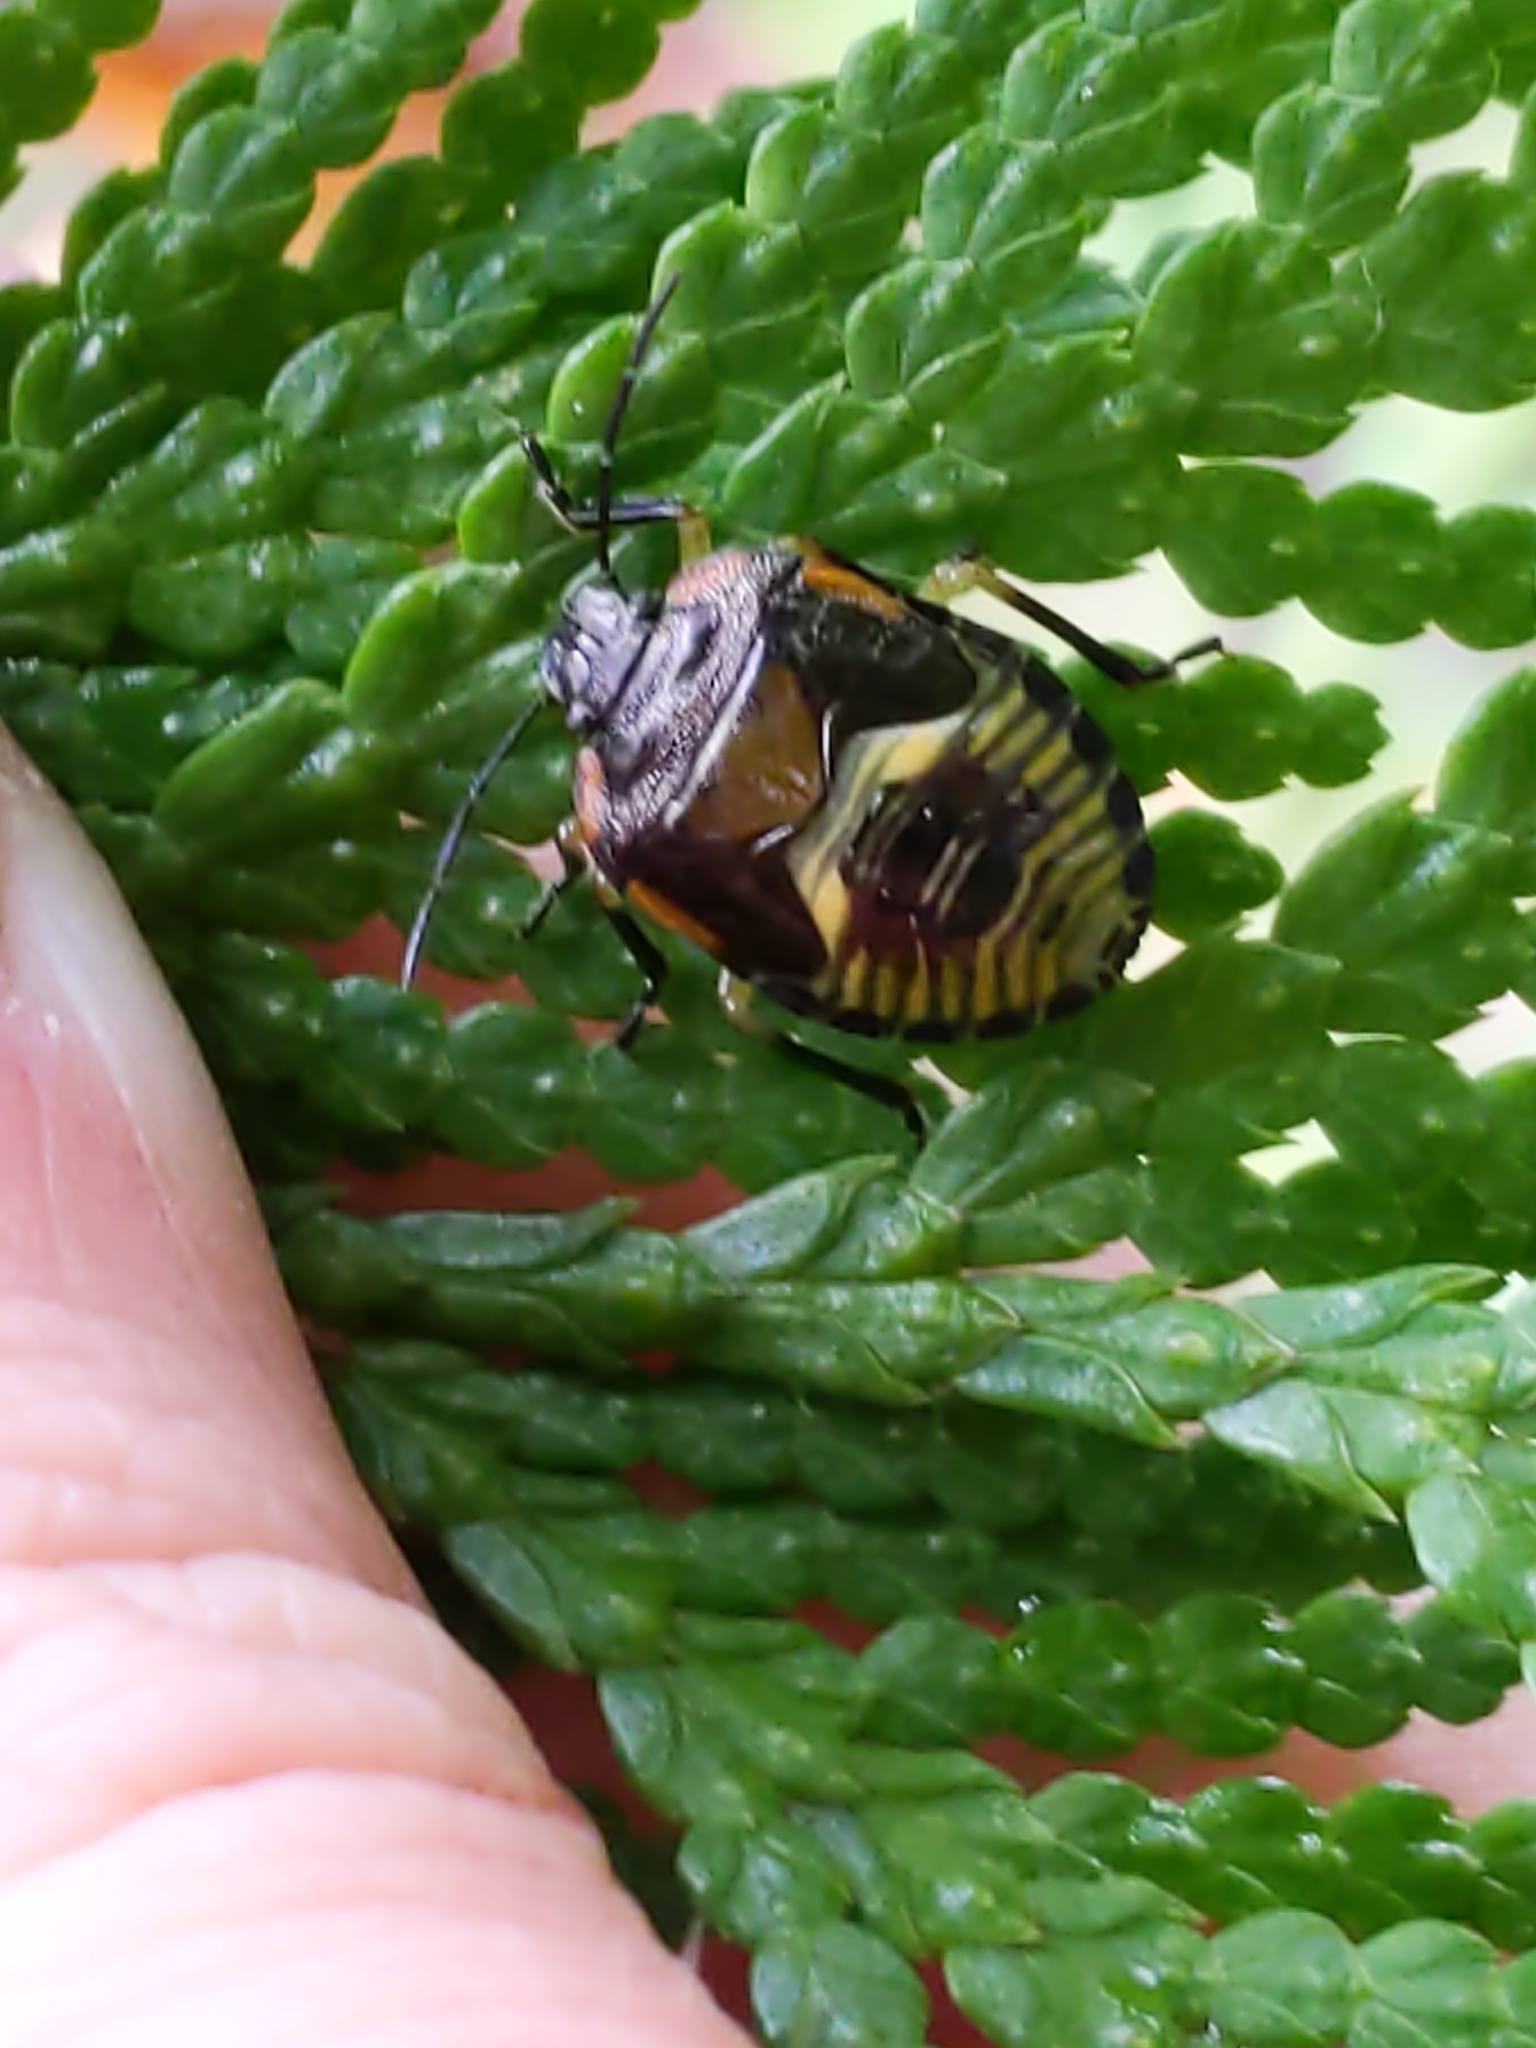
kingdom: Animalia
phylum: Arthropoda
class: Insecta
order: Hemiptera
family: Pentatomidae
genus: Chinavia
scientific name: Chinavia hilaris
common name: Green stink bug
